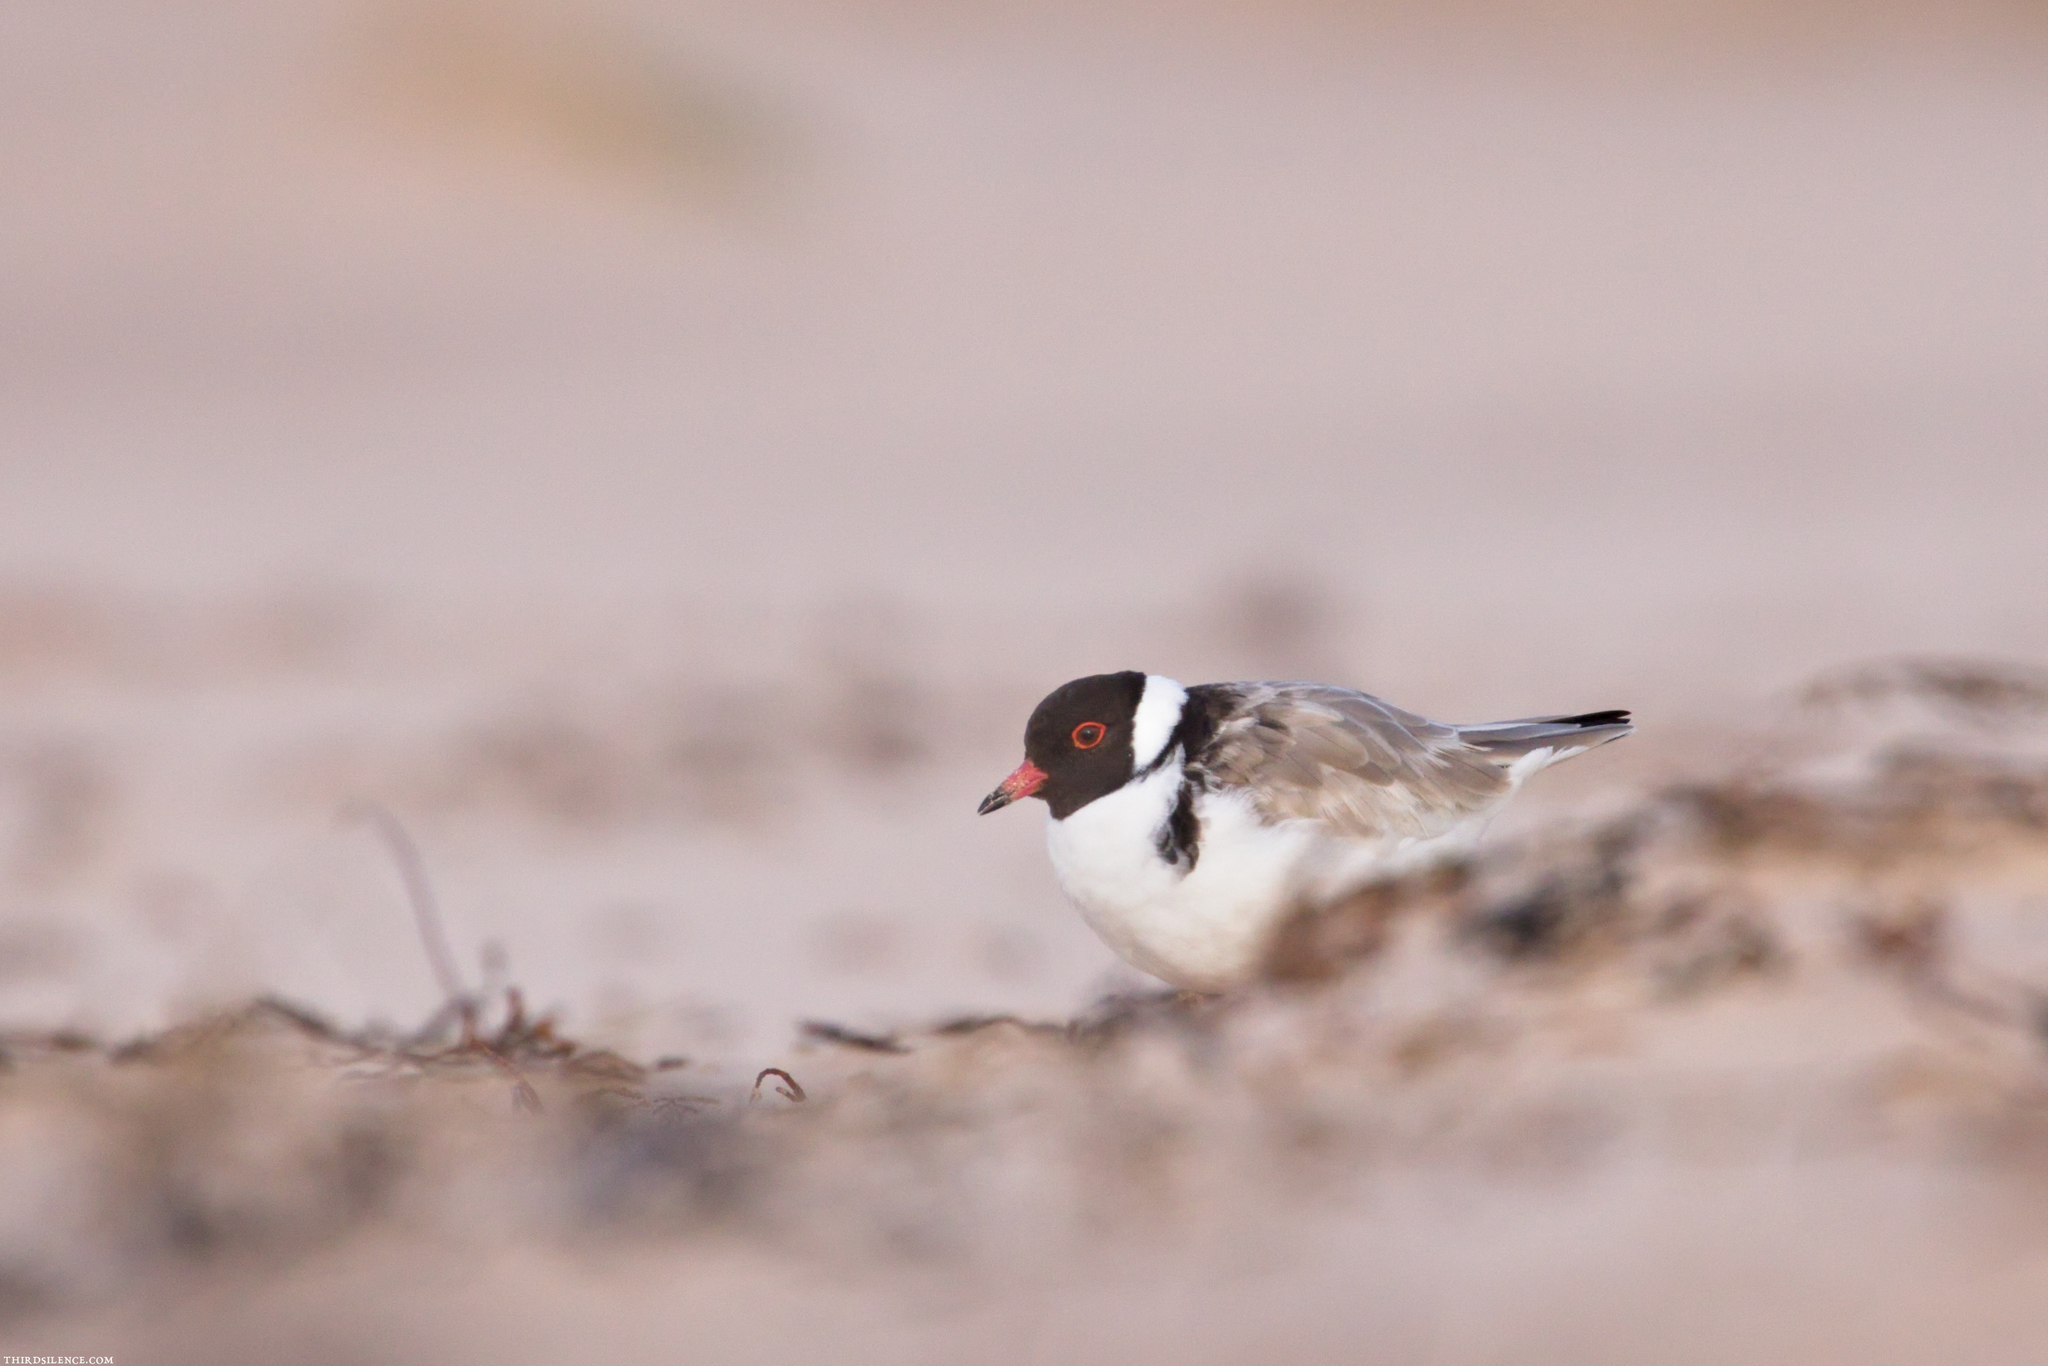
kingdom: Animalia
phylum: Chordata
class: Aves
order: Charadriiformes
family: Charadriidae
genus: Thinornis
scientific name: Thinornis cucullatus
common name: Hooded dotterel
